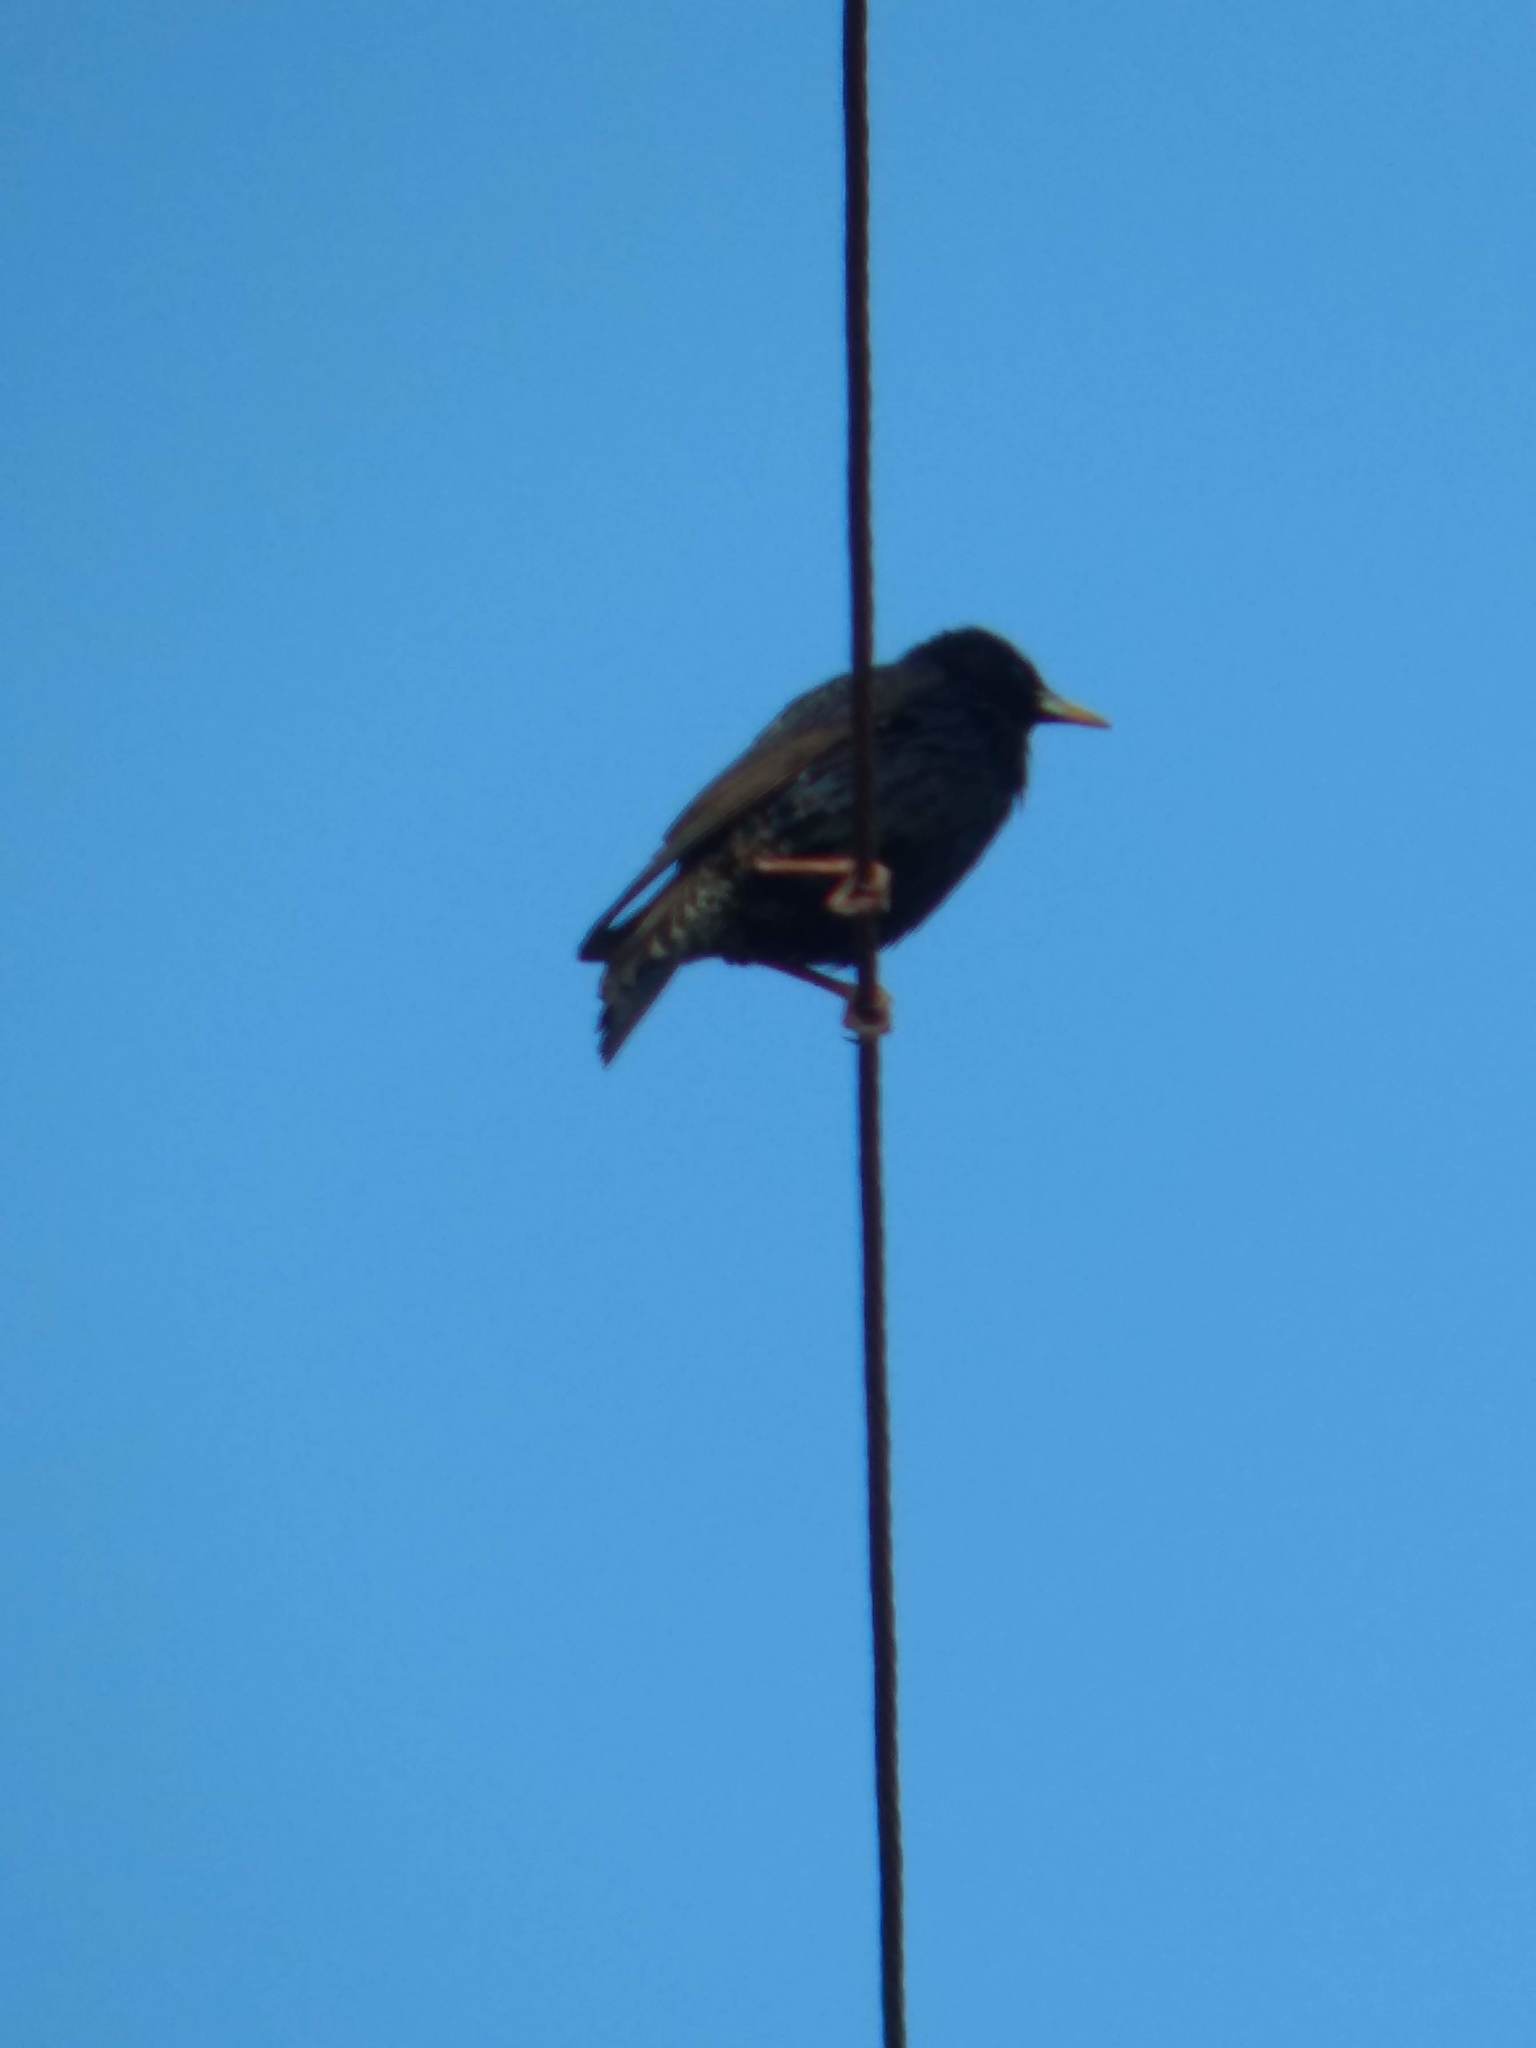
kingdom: Animalia
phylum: Chordata
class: Aves
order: Passeriformes
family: Sturnidae
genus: Sturnus
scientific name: Sturnus vulgaris
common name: Common starling
